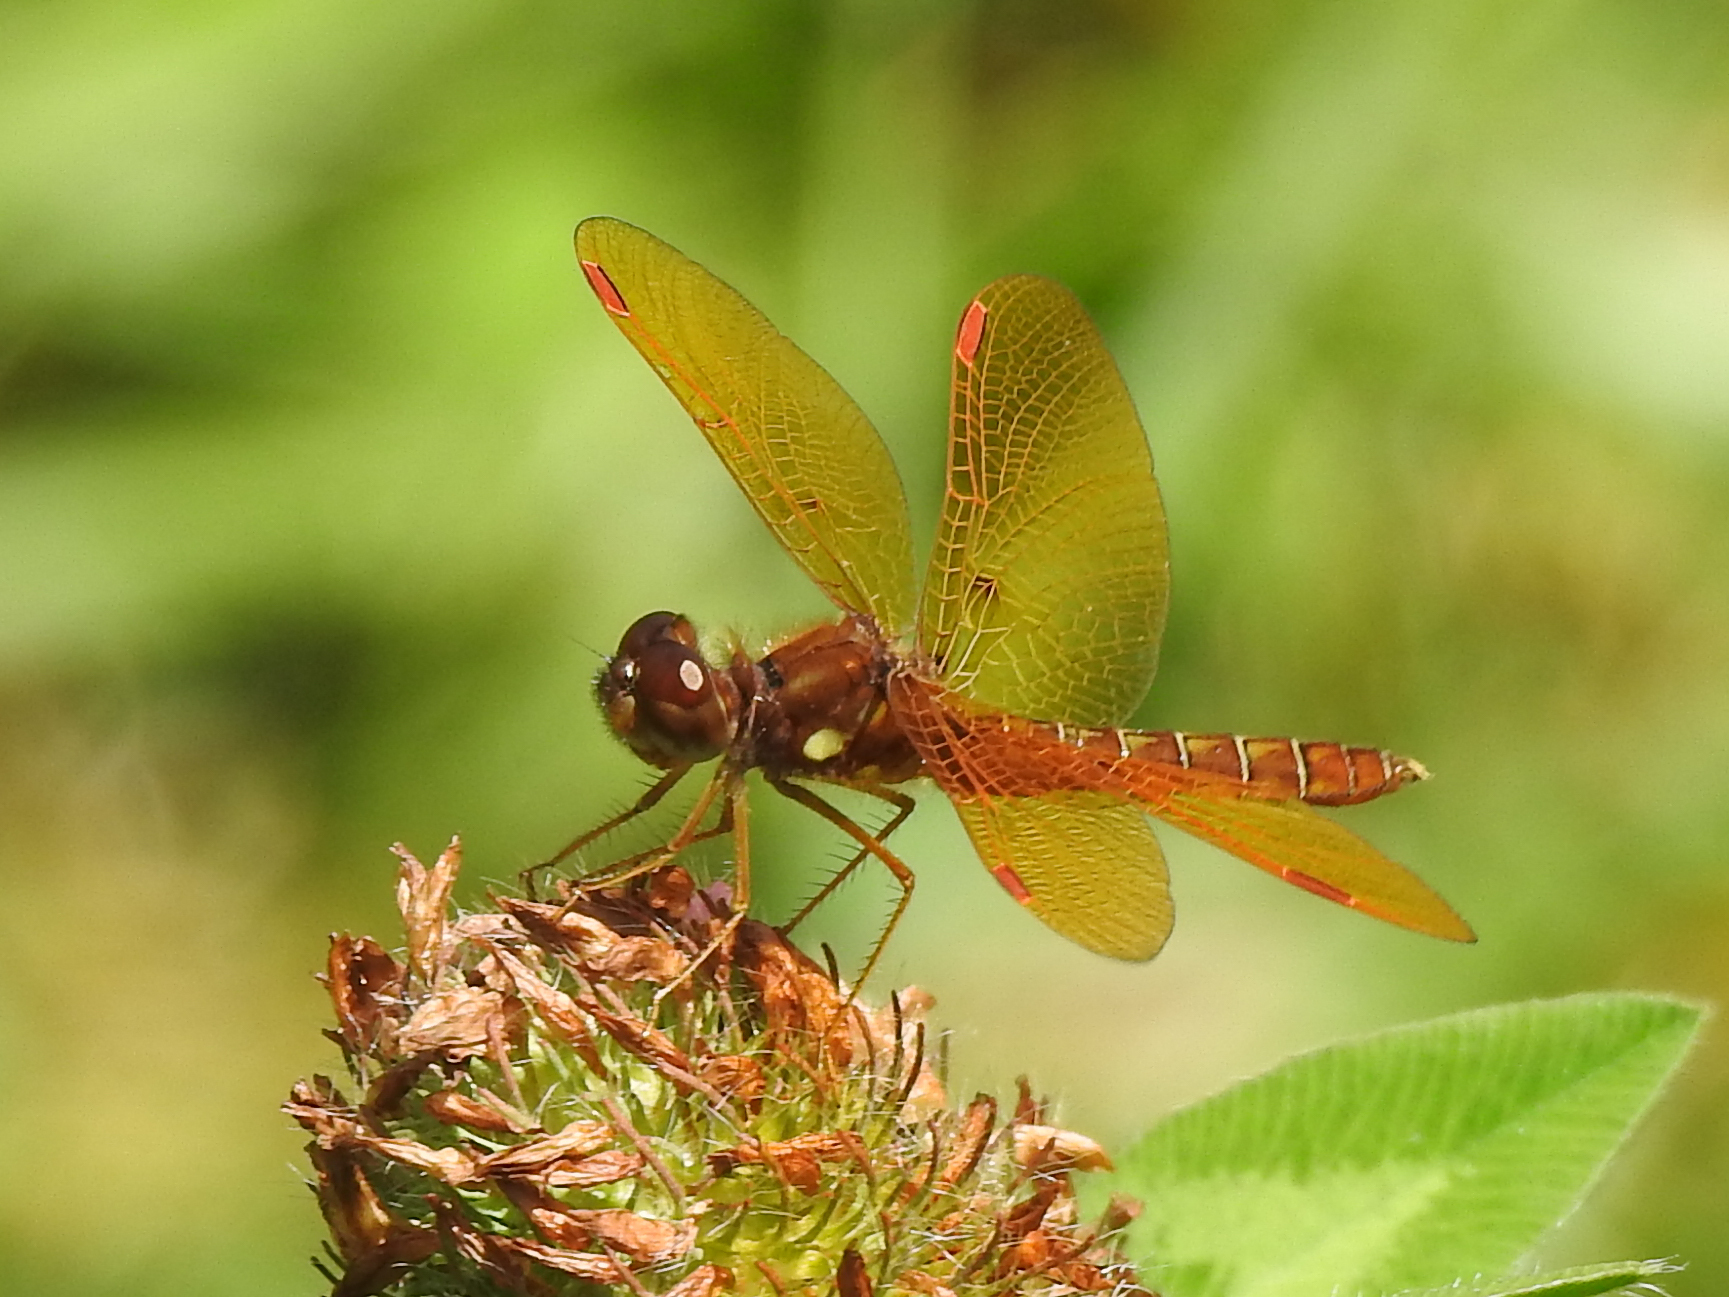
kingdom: Animalia
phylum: Arthropoda
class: Insecta
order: Odonata
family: Libellulidae
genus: Perithemis
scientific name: Perithemis tenera
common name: Eastern amberwing
